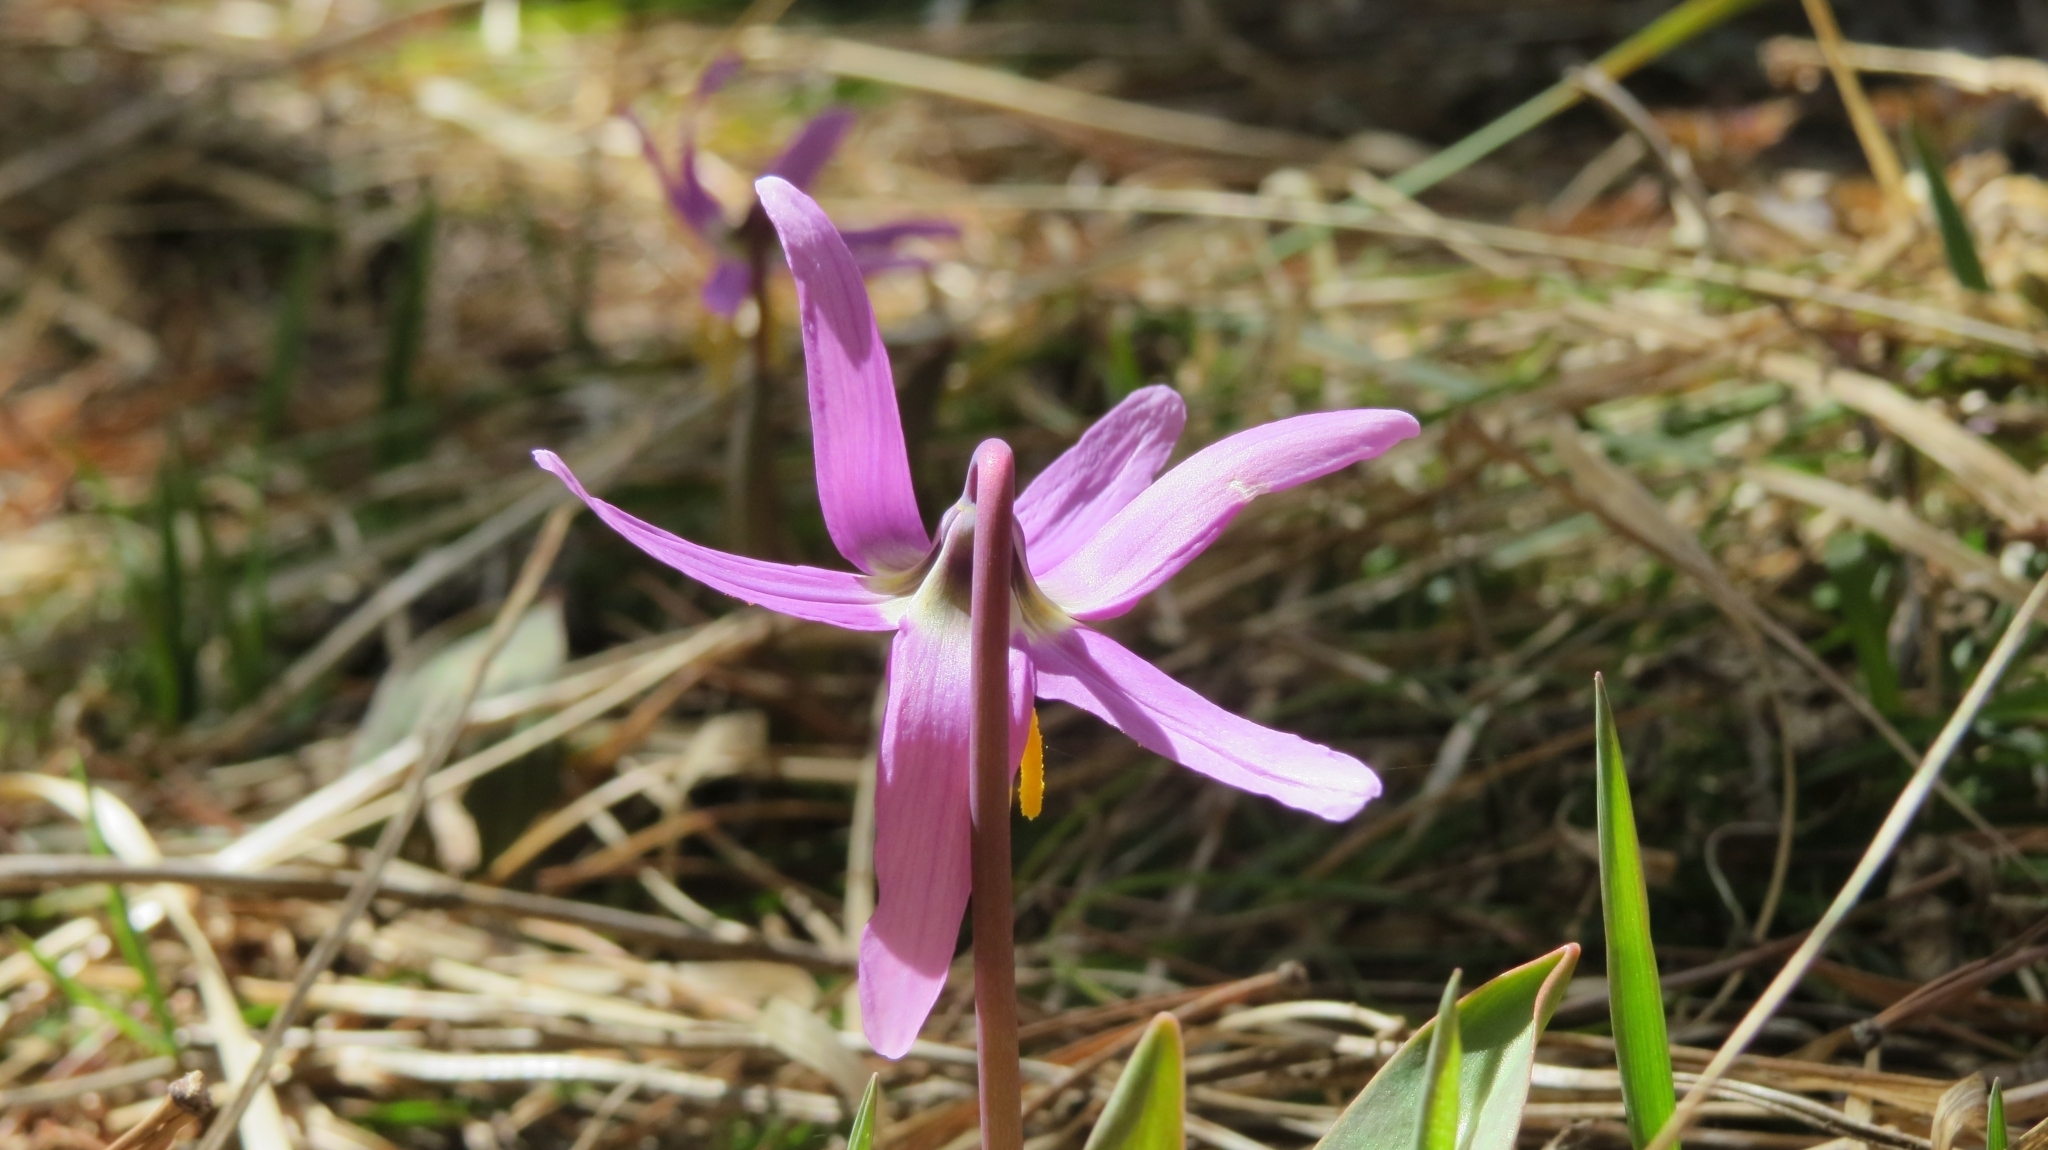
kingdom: Plantae
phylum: Tracheophyta
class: Liliopsida
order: Liliales
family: Liliaceae
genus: Erythronium
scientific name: Erythronium sibiricum
